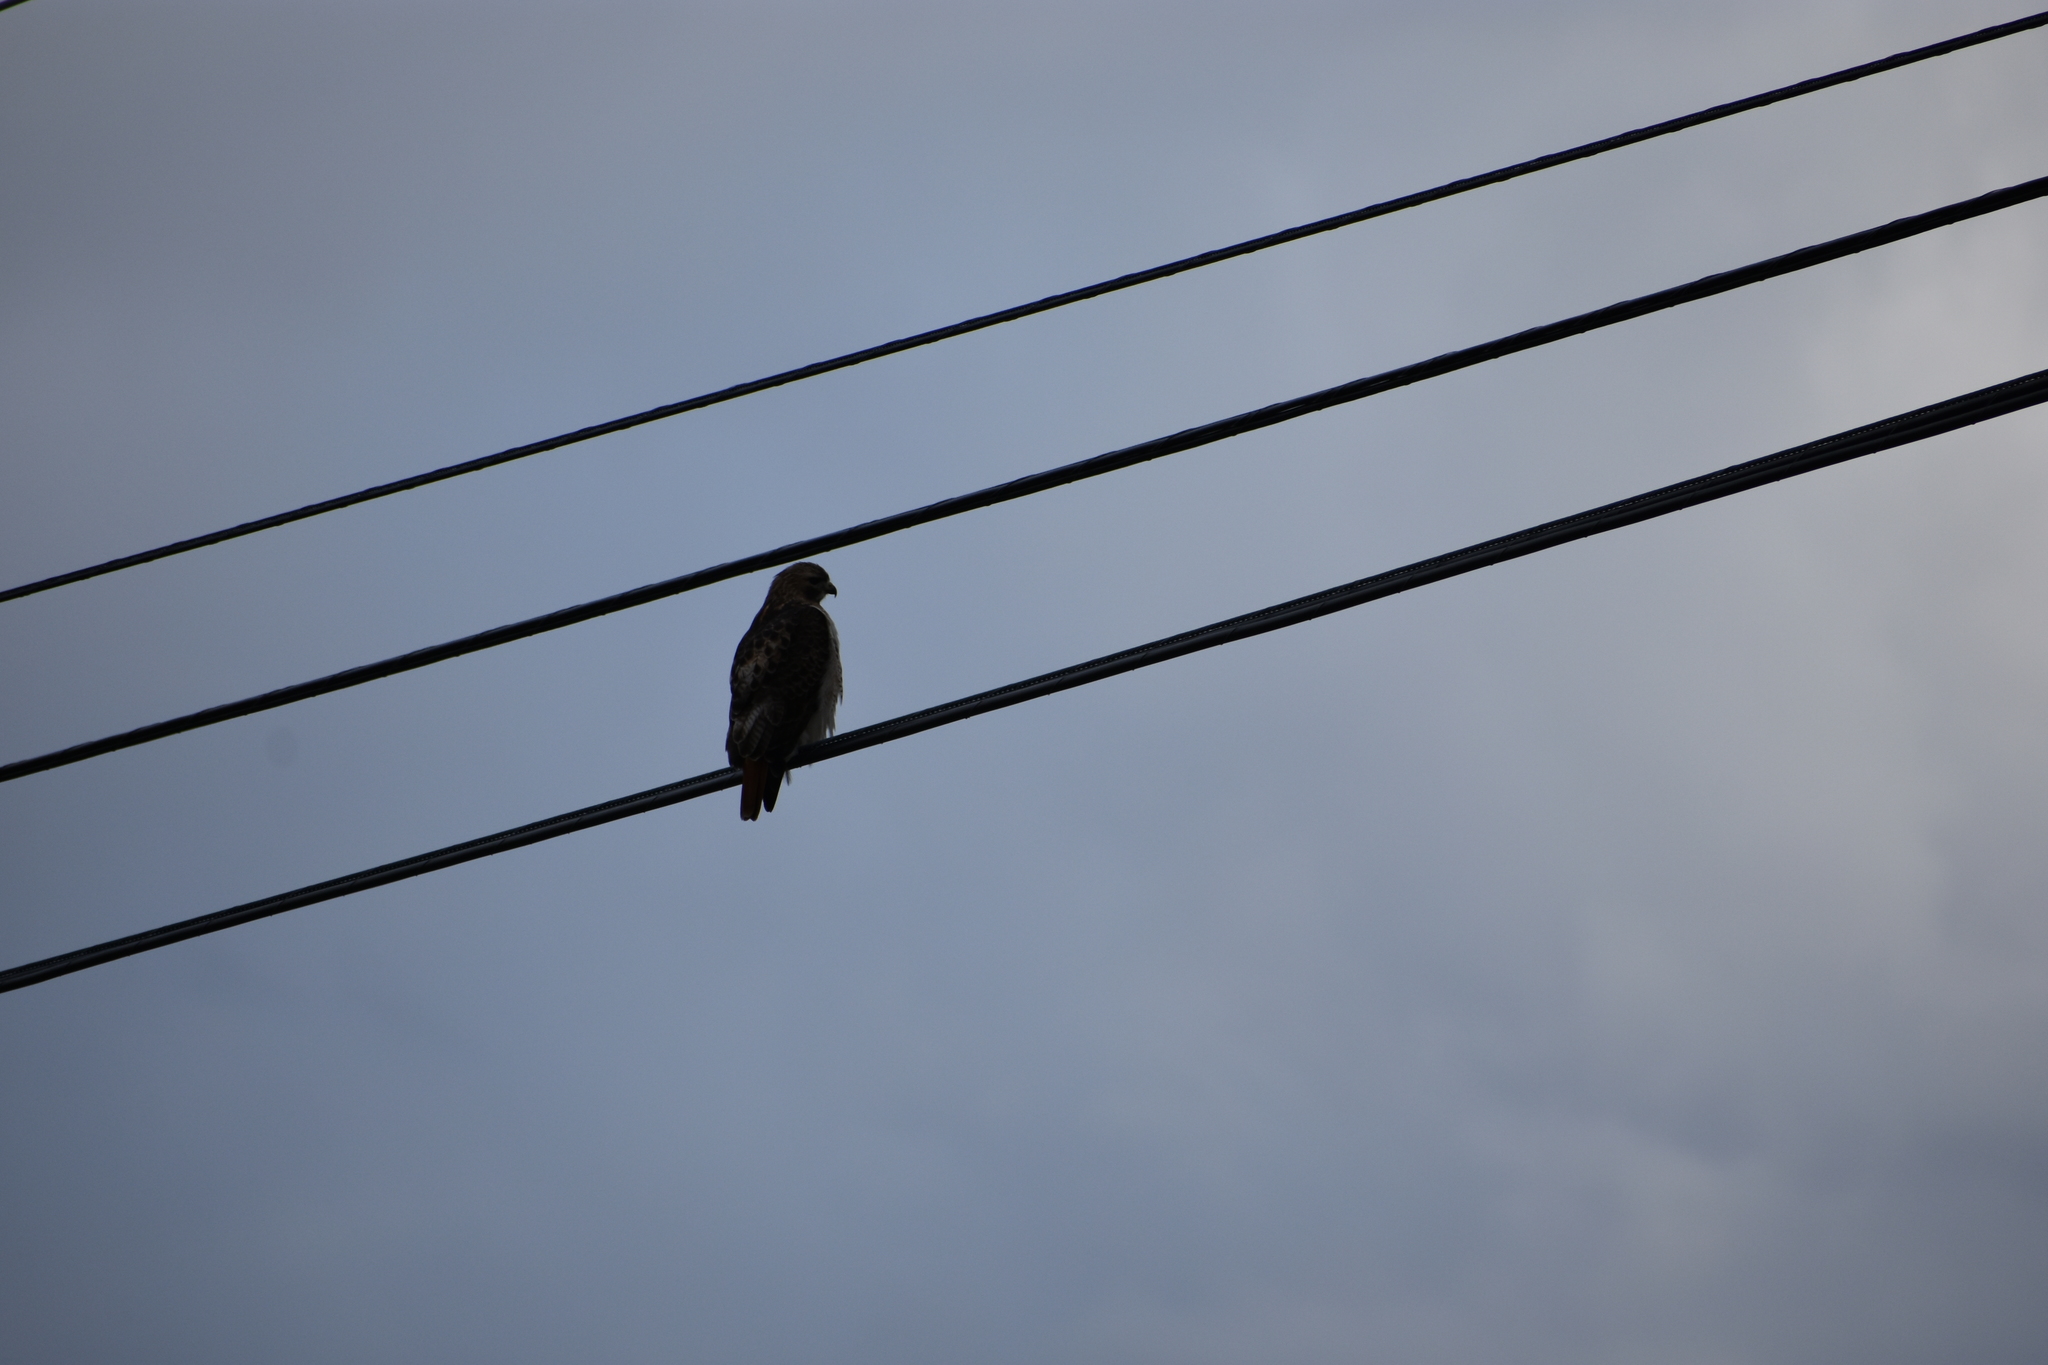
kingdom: Animalia
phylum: Chordata
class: Aves
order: Accipitriformes
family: Accipitridae
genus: Buteo
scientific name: Buteo jamaicensis
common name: Red-tailed hawk
